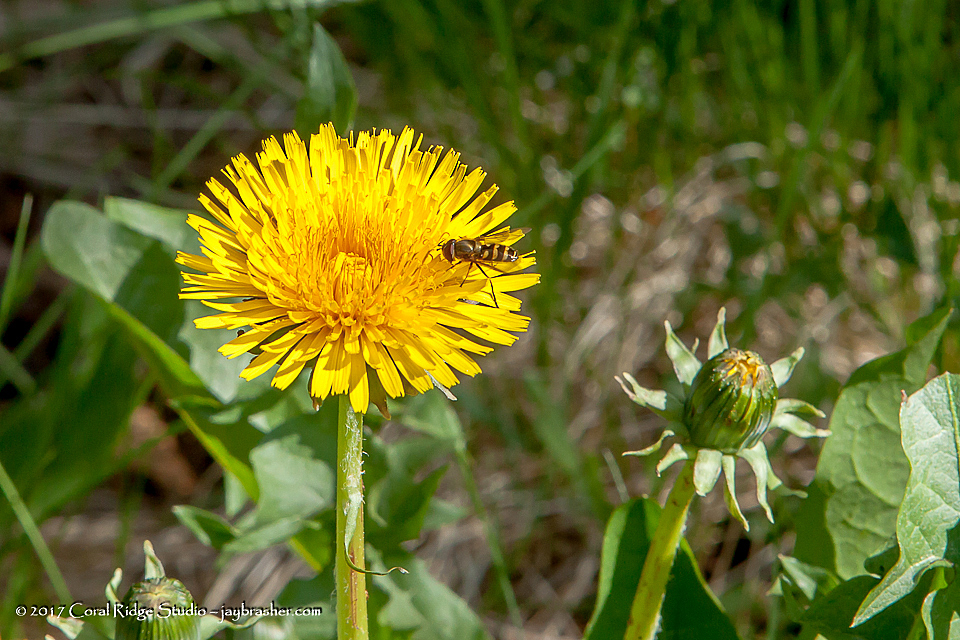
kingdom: Plantae
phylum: Tracheophyta
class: Magnoliopsida
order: Asterales
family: Asteraceae
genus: Taraxacum
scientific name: Taraxacum officinale
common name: Common dandelion
